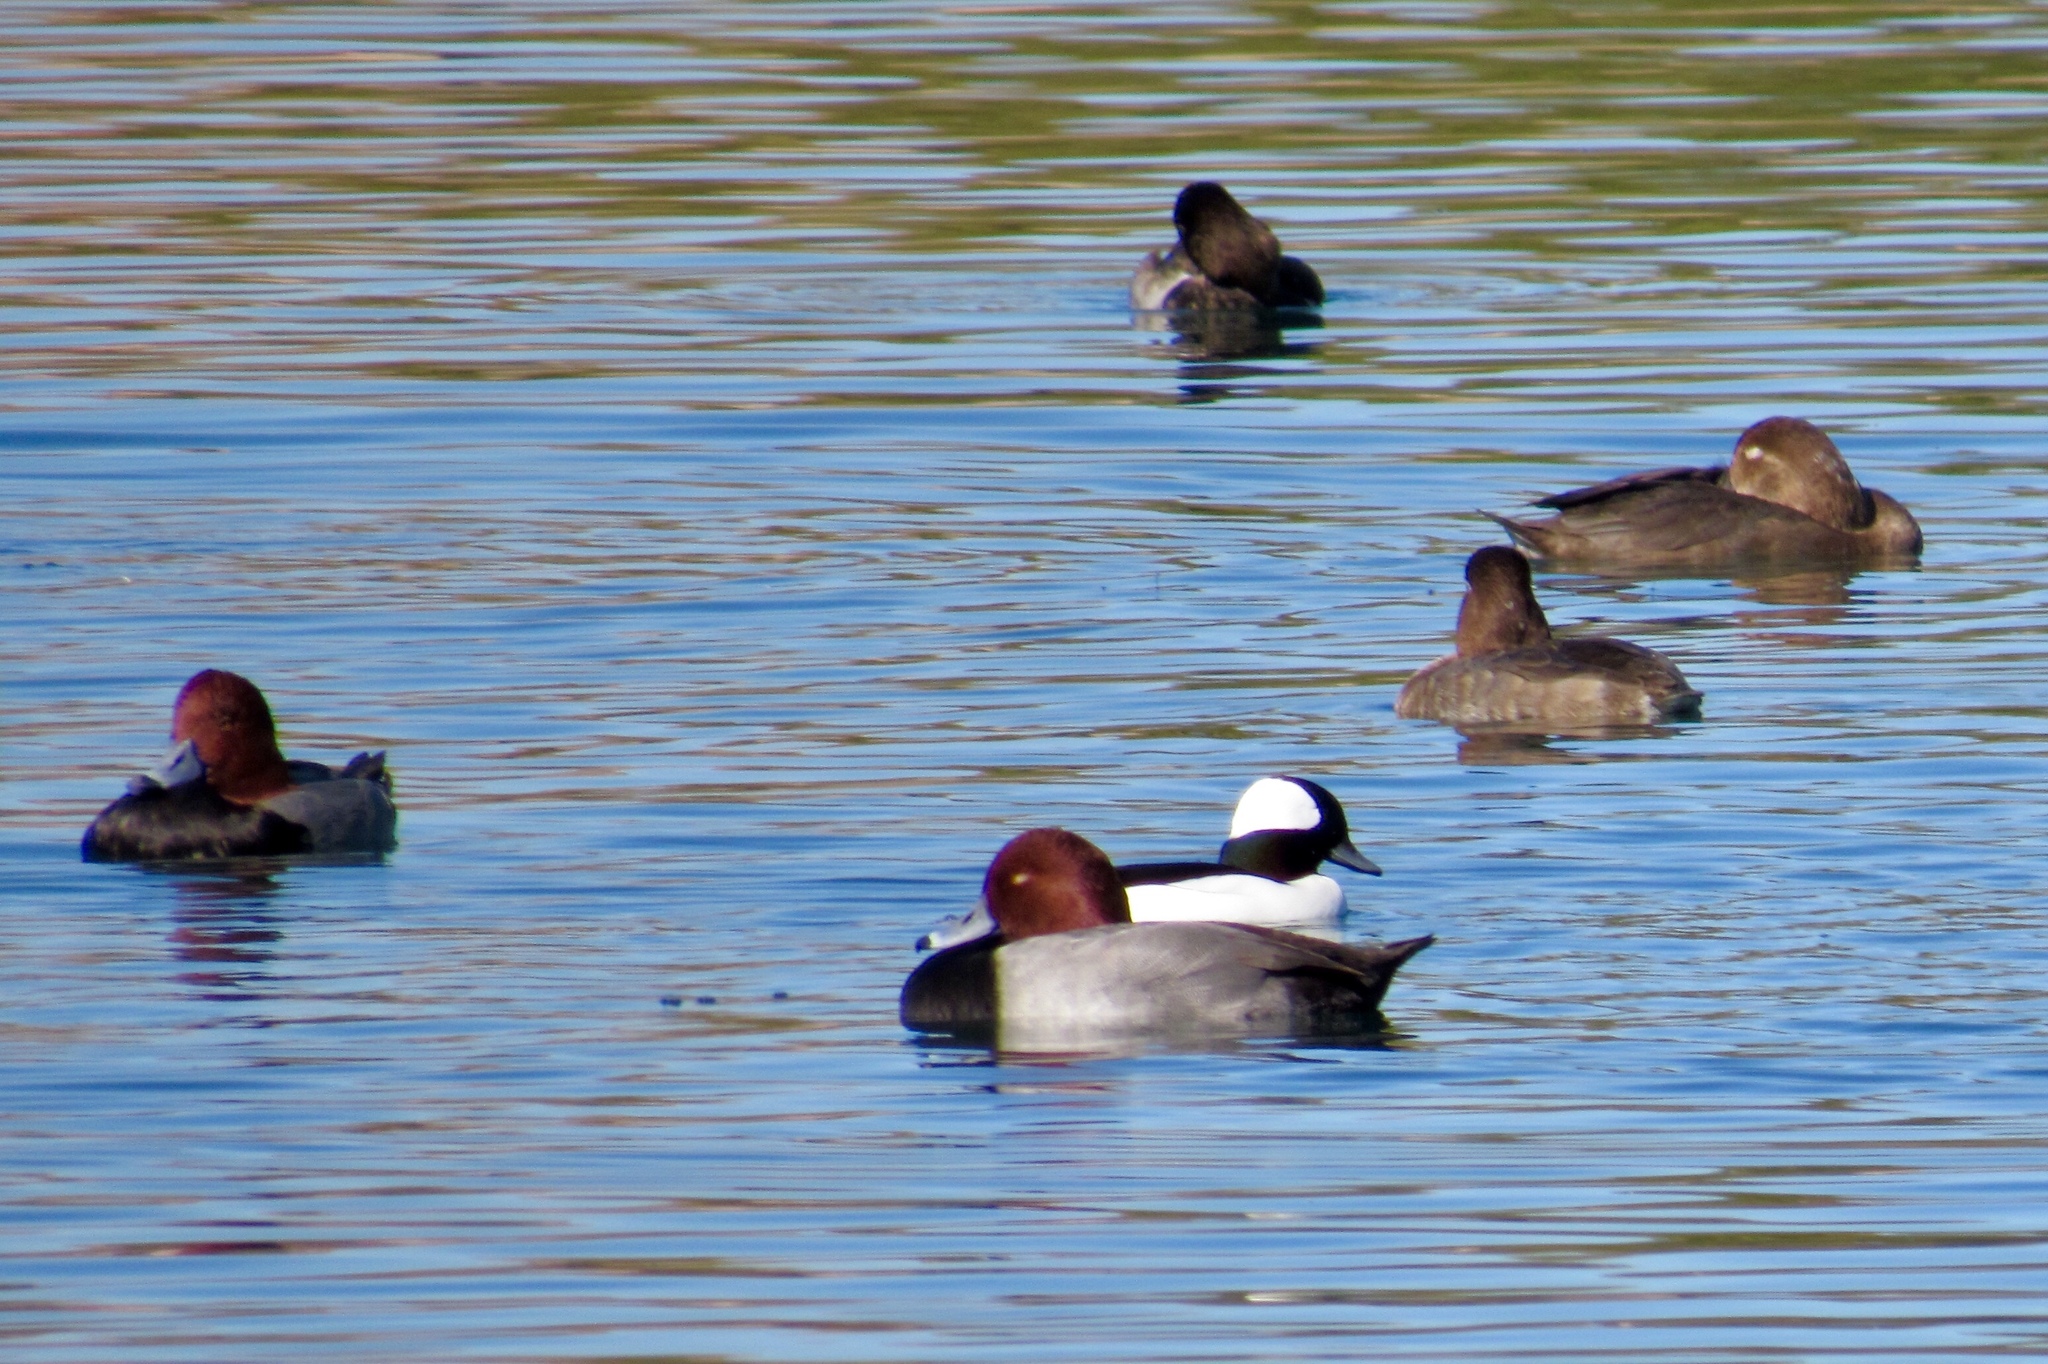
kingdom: Animalia
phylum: Chordata
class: Aves
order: Anseriformes
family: Anatidae
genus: Aythya
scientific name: Aythya americana
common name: Redhead
